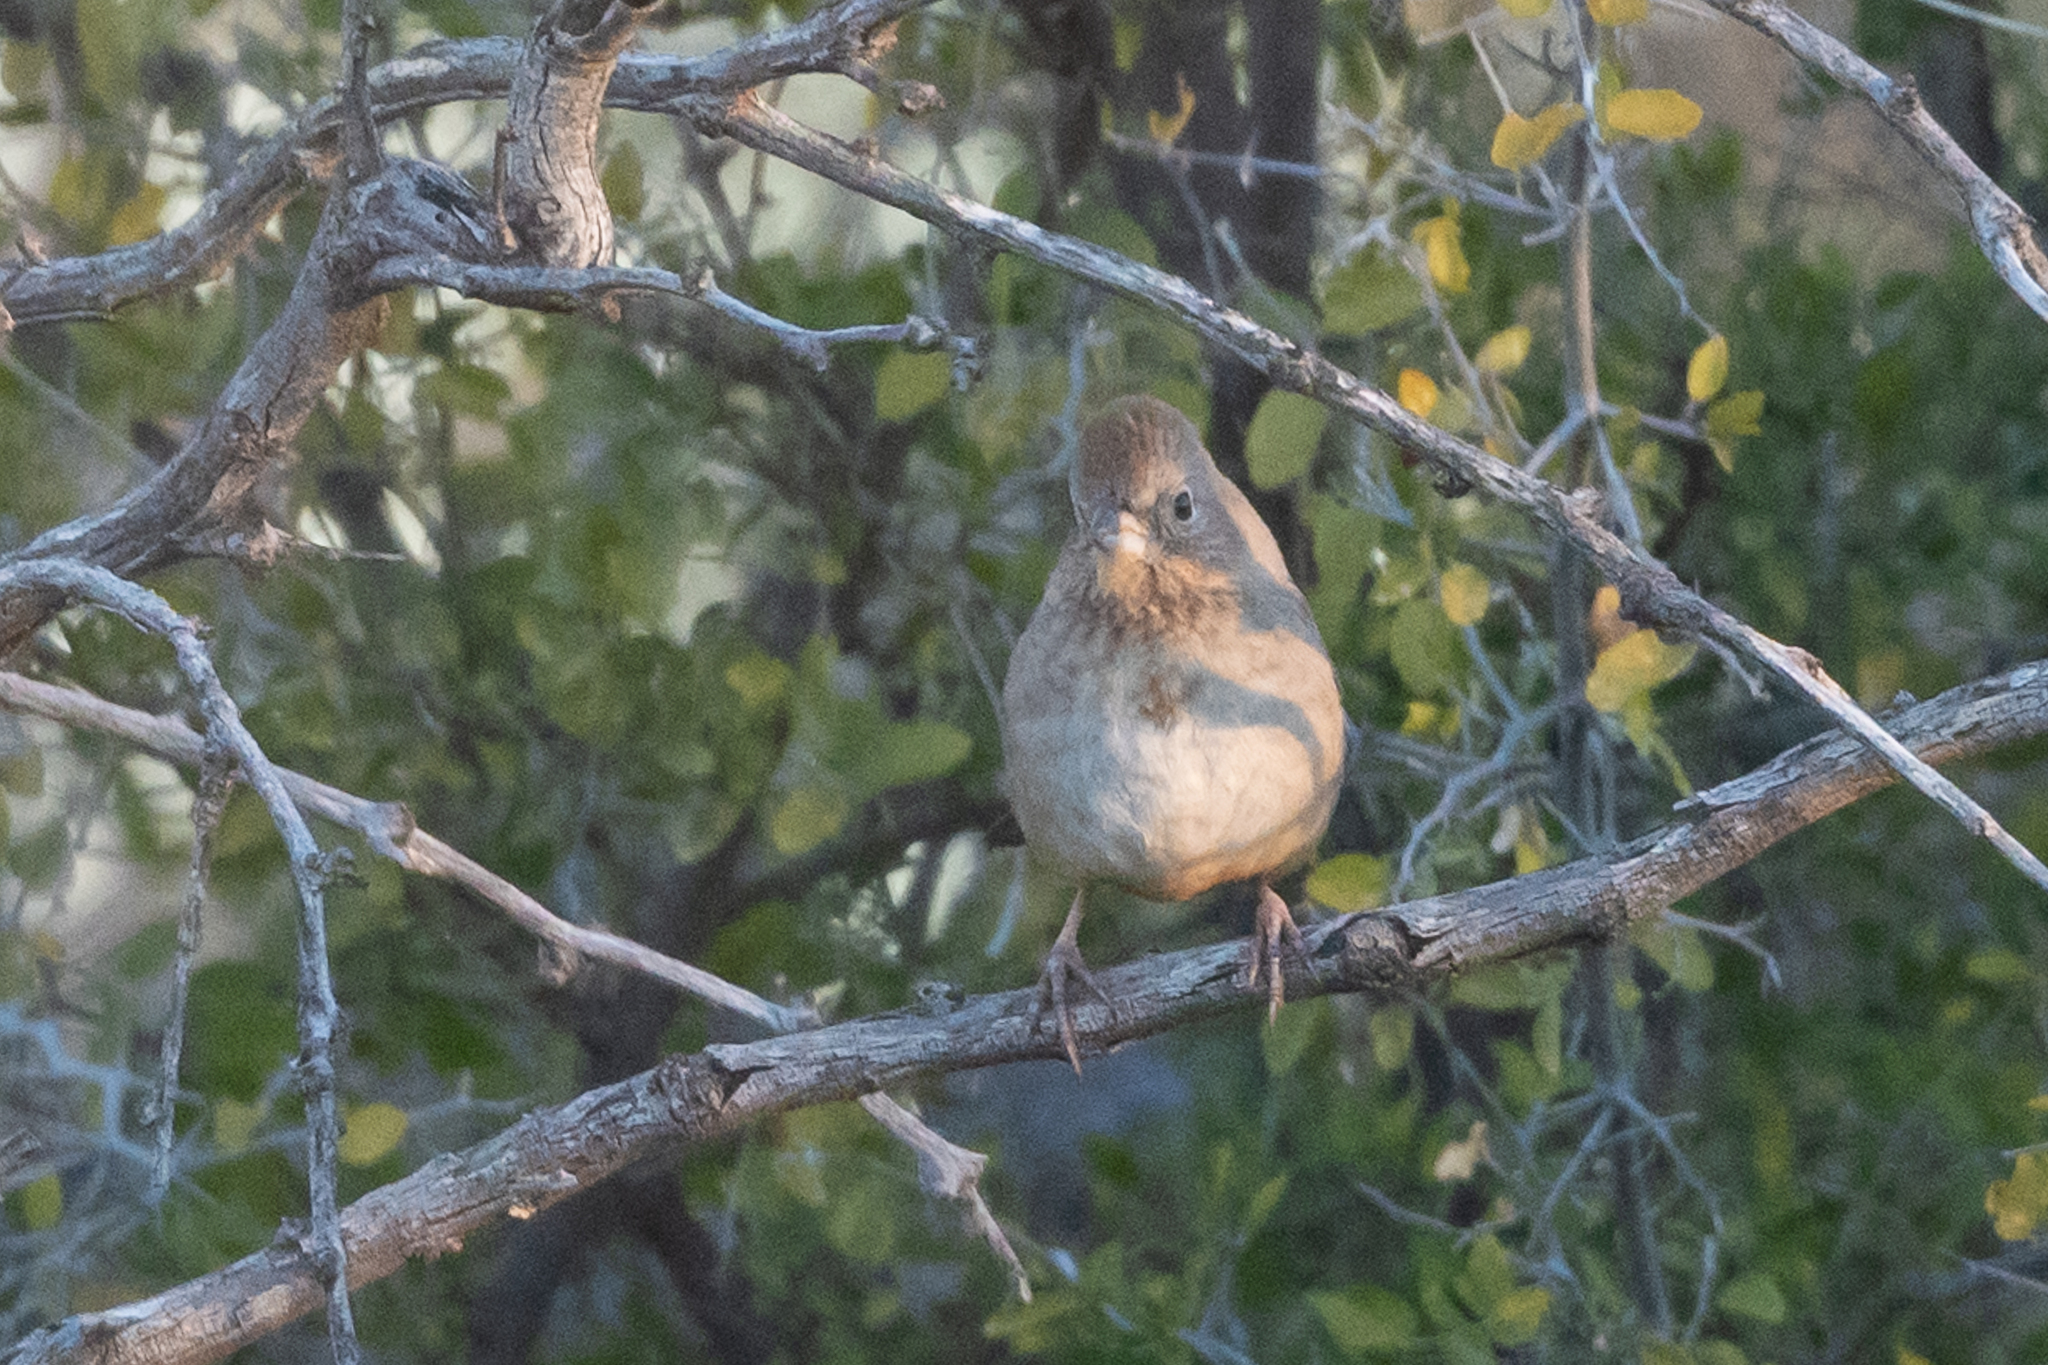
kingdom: Animalia
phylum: Chordata
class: Aves
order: Passeriformes
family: Passerellidae
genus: Melozone
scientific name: Melozone fusca
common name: Canyon towhee
